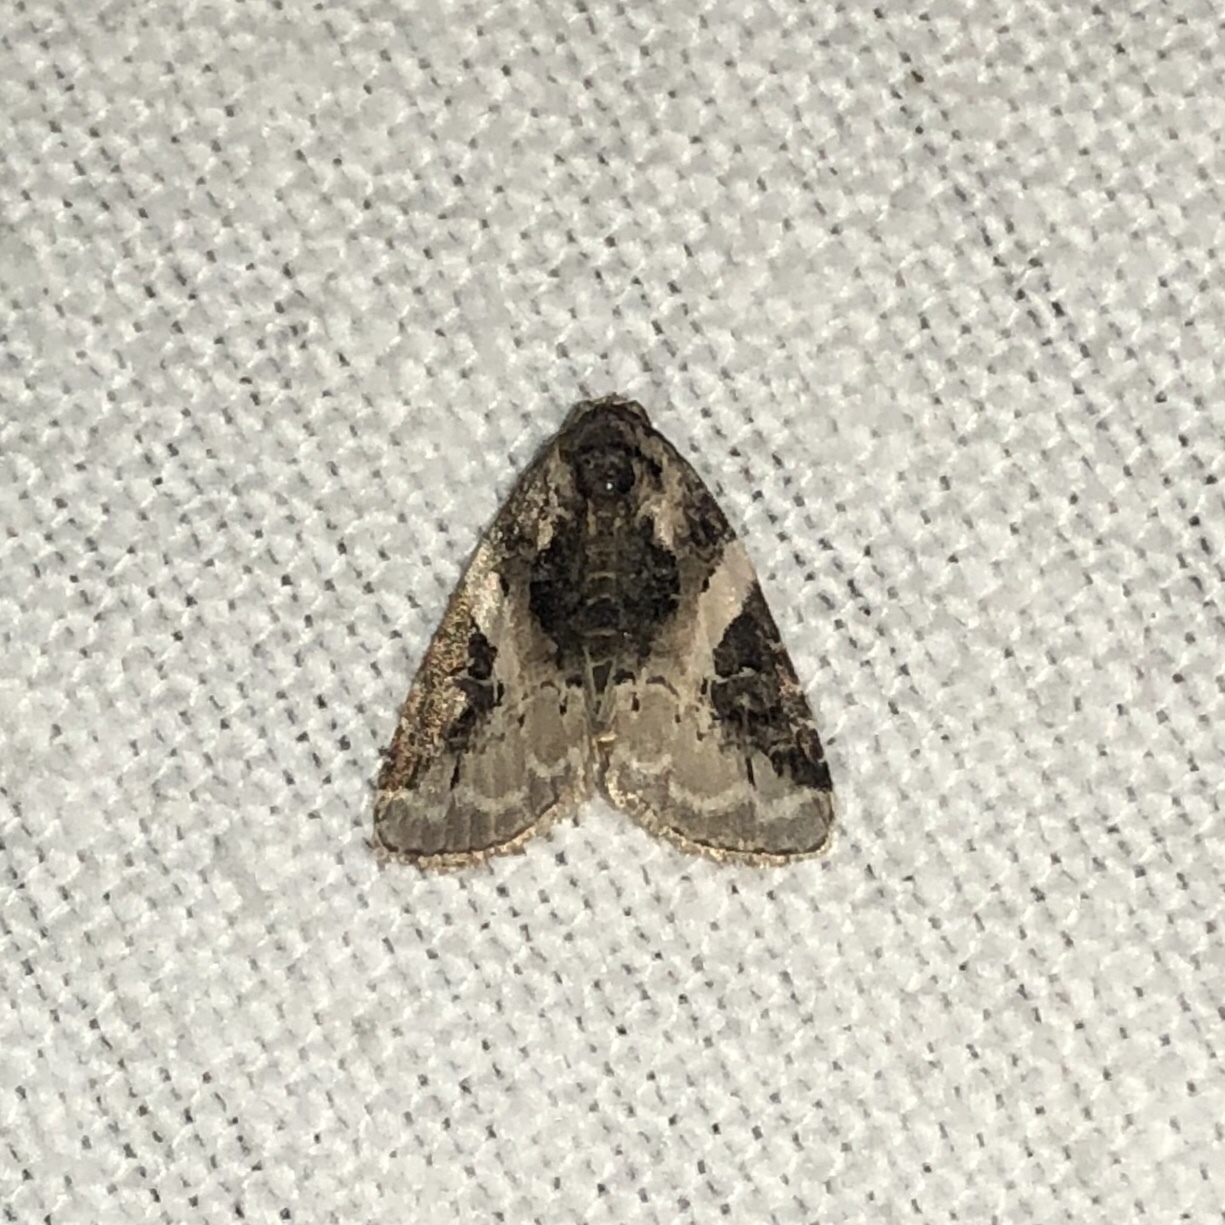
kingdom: Animalia
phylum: Arthropoda
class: Insecta
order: Lepidoptera
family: Noctuidae
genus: Pseudeustrotia
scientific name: Pseudeustrotia carneola
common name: Pink-barred lithacodia moth
